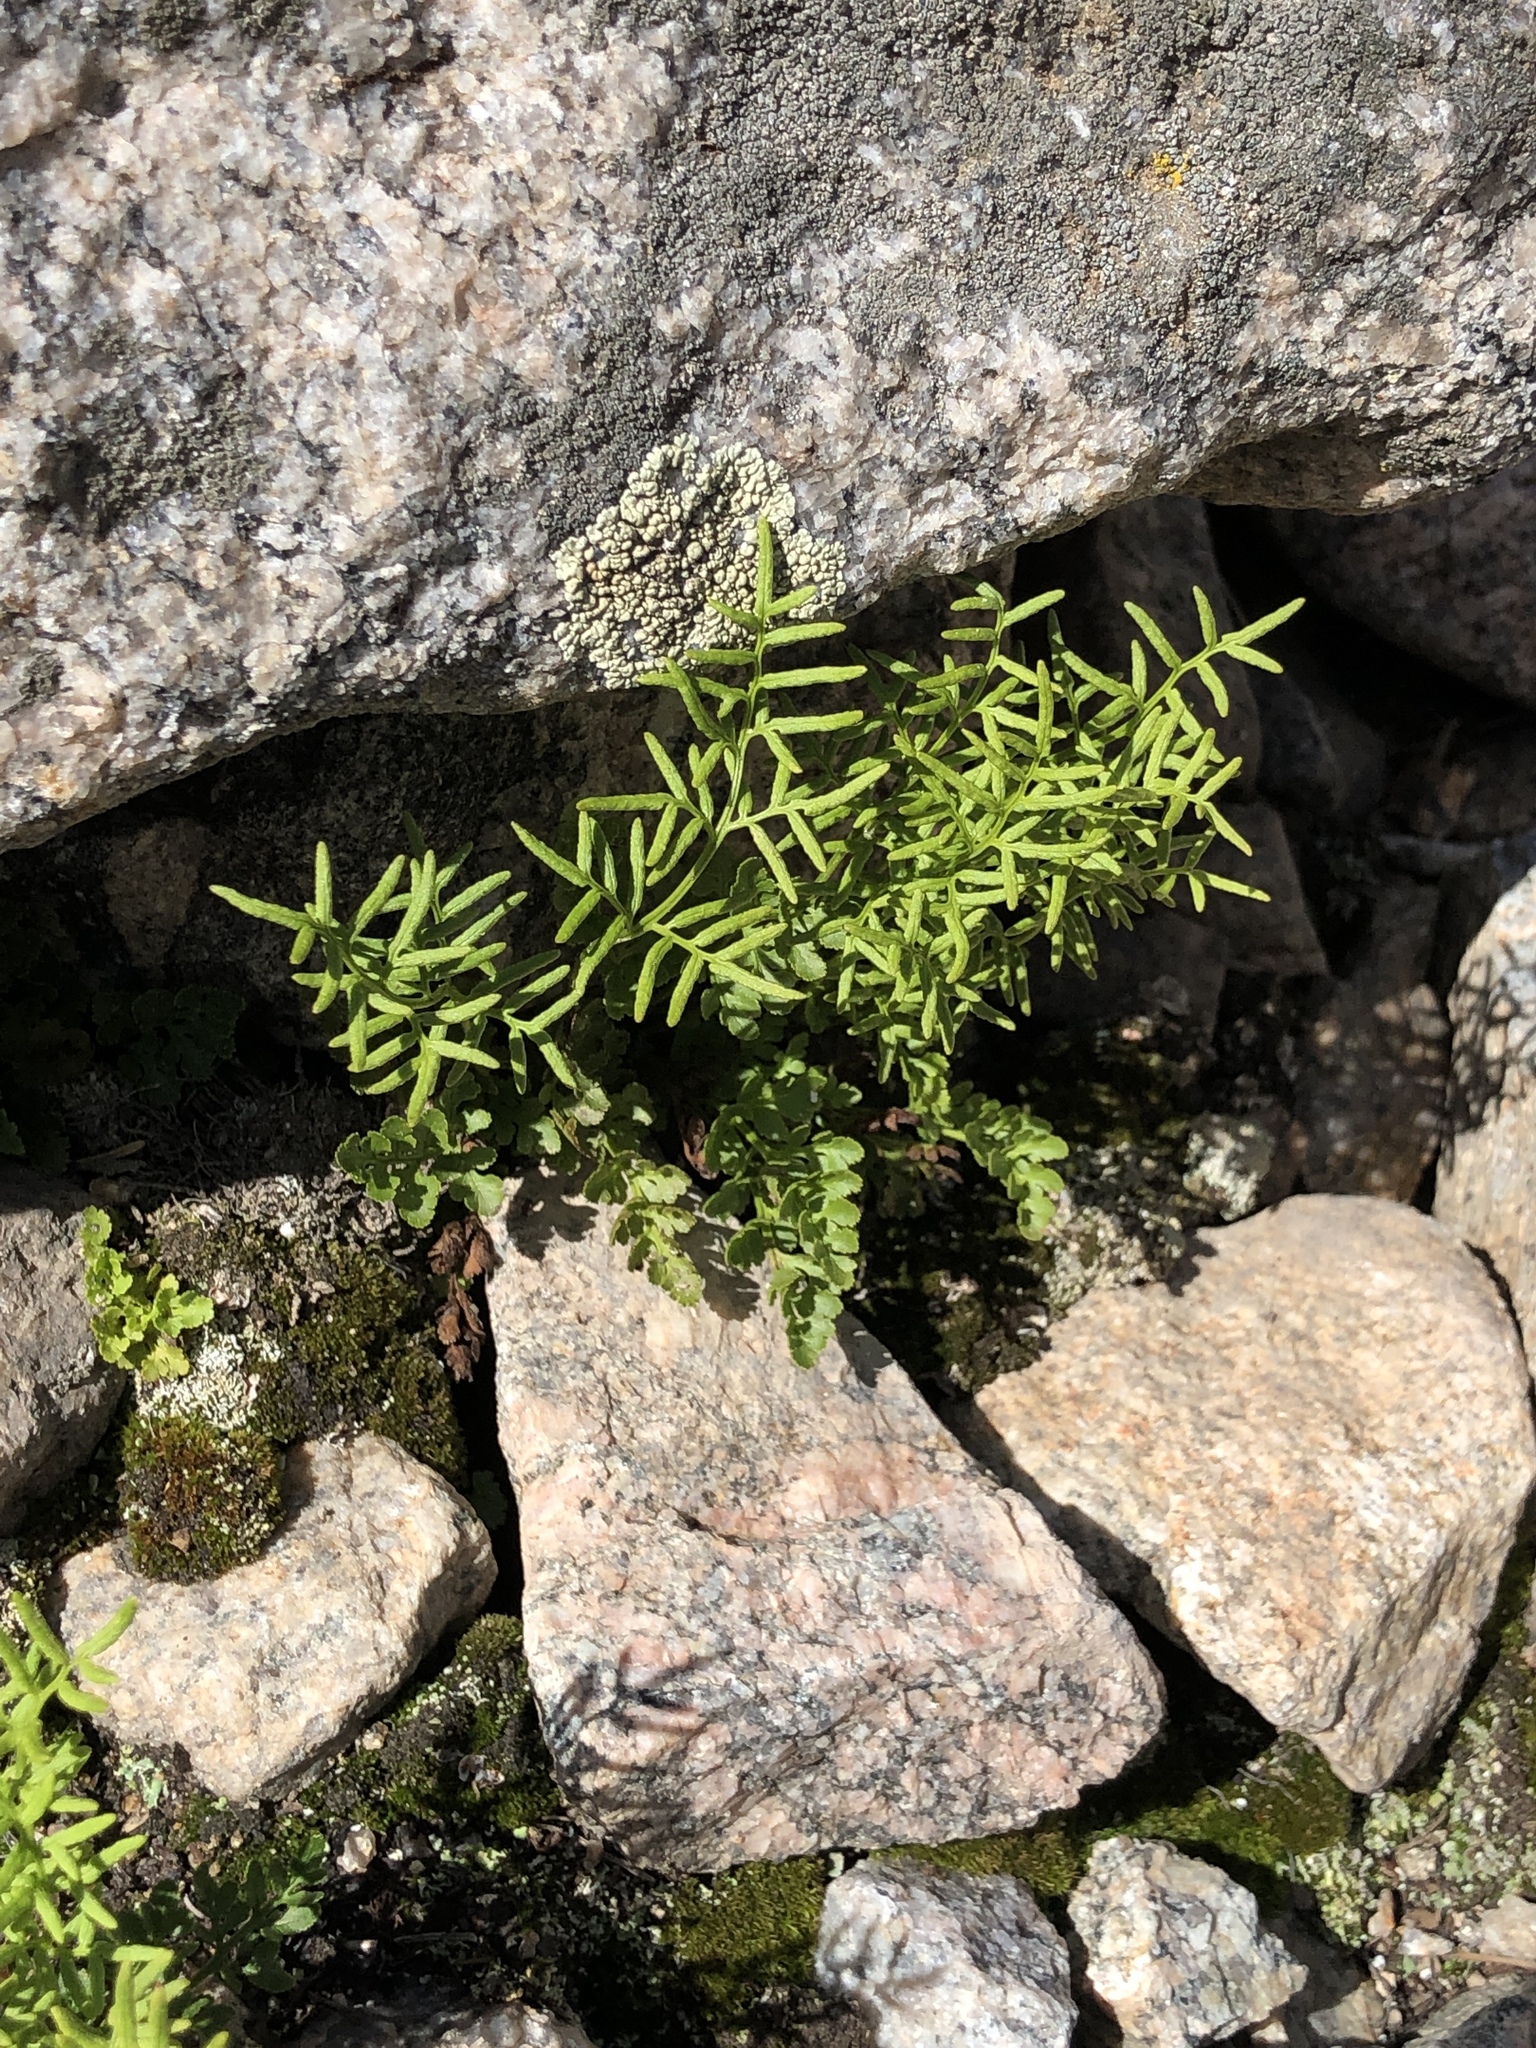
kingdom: Plantae
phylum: Tracheophyta
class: Polypodiopsida
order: Polypodiales
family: Pteridaceae
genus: Cryptogramma
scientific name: Cryptogramma acrostichoides
